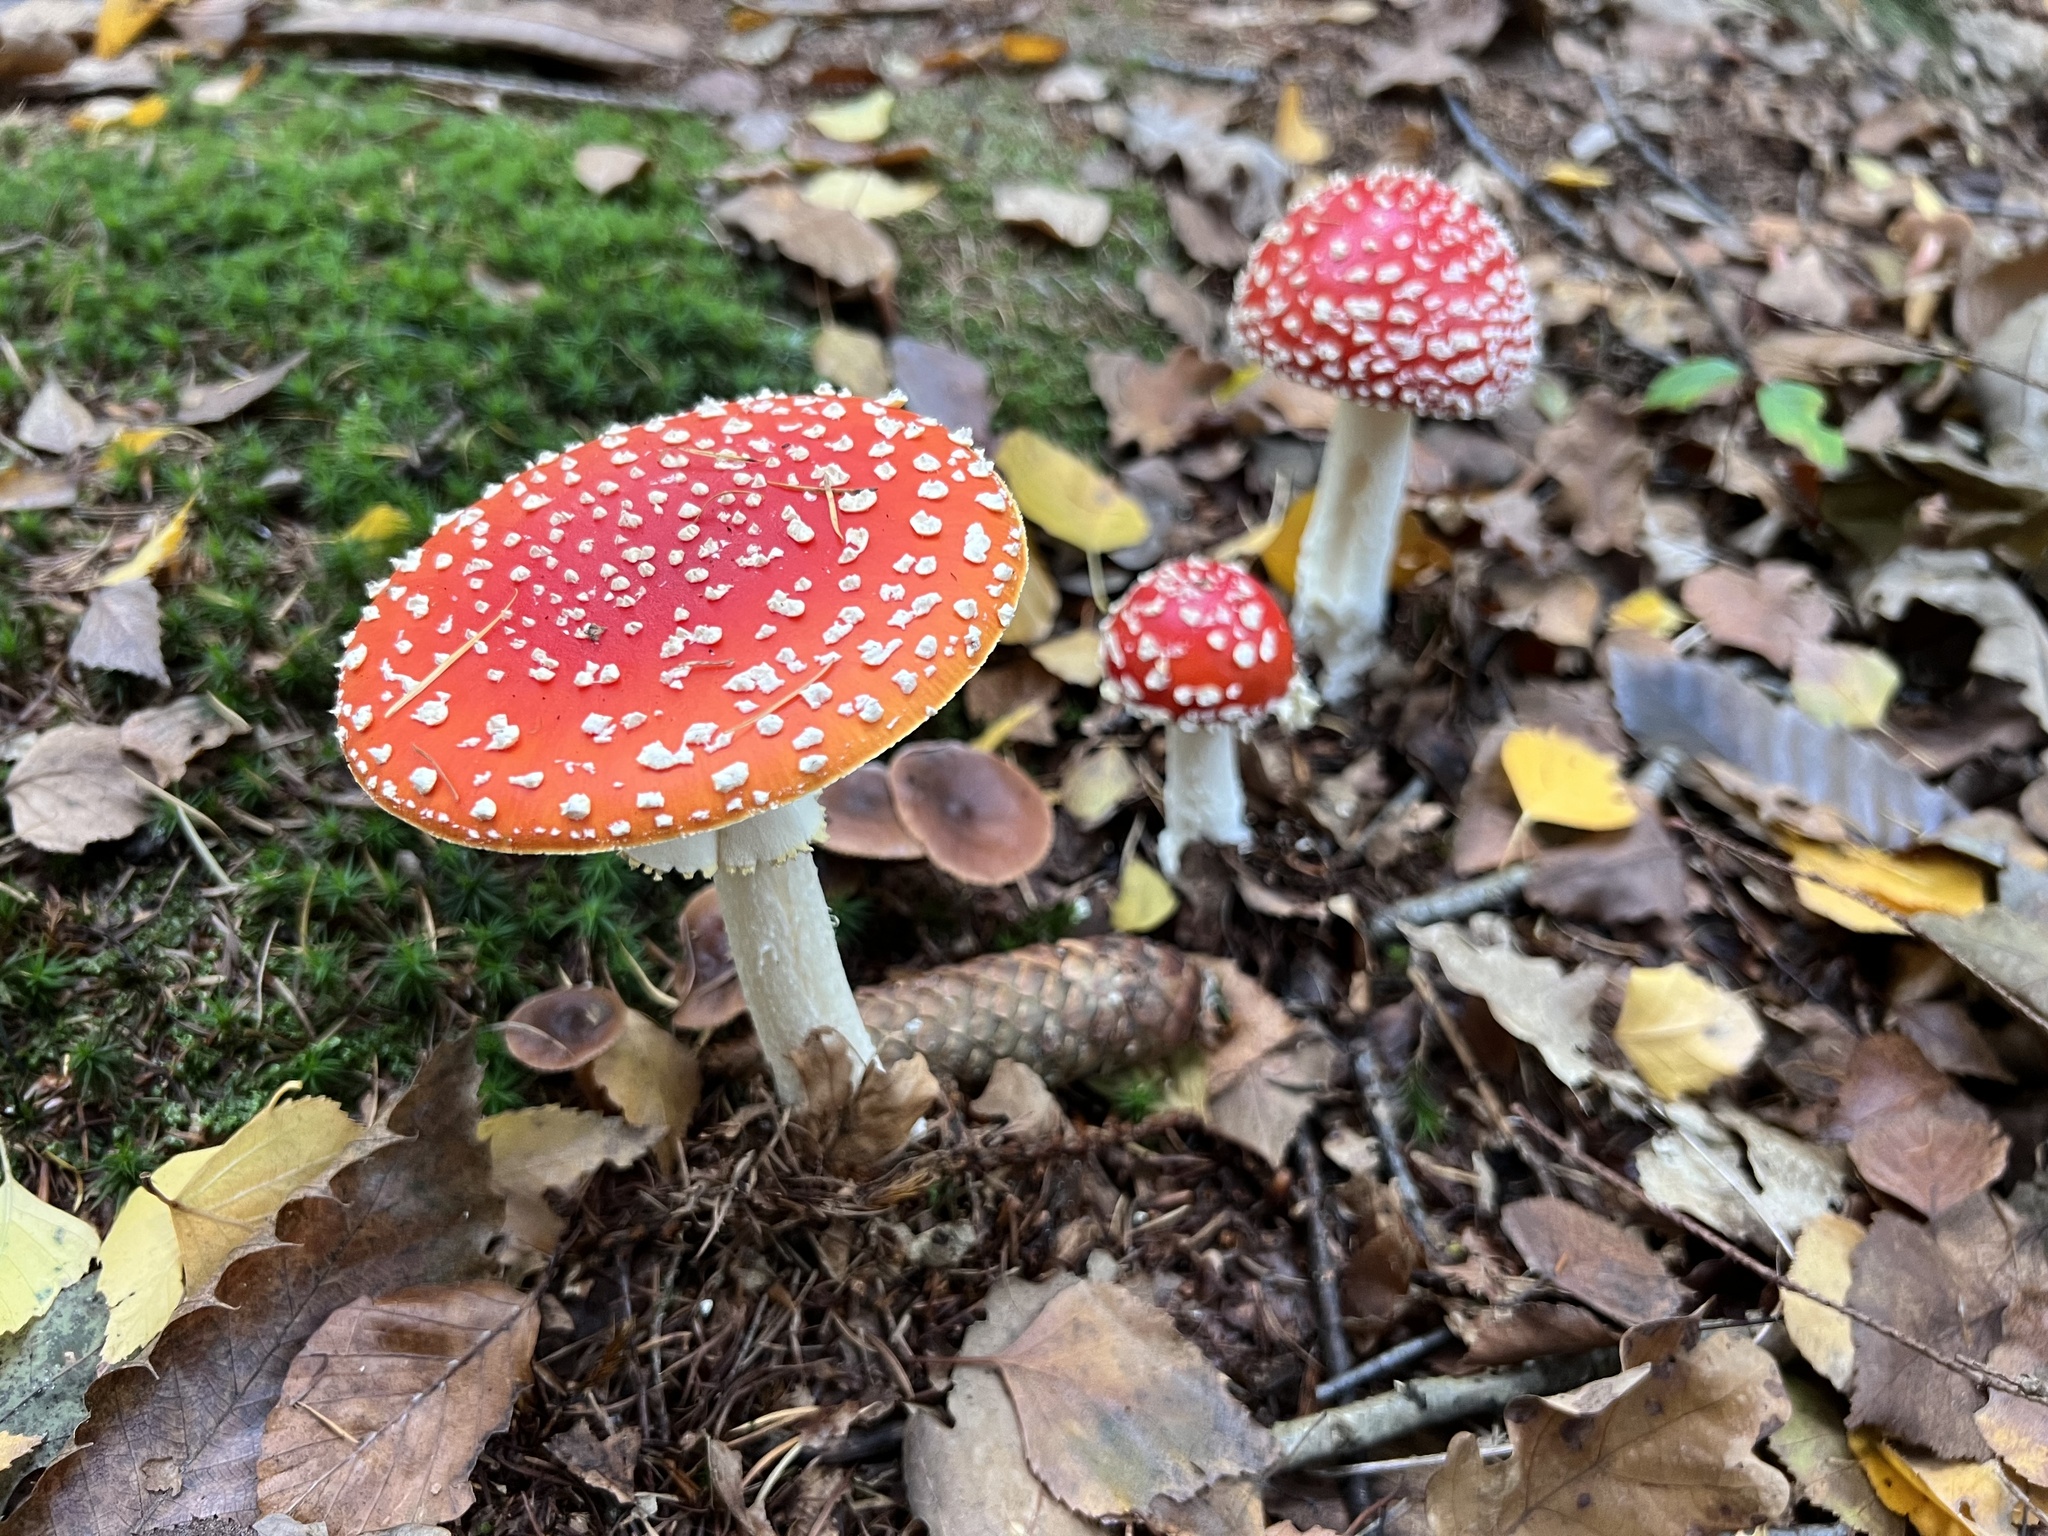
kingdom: Fungi
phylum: Basidiomycota
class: Agaricomycetes
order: Agaricales
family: Amanitaceae
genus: Amanita
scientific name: Amanita muscaria
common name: Fly agaric
